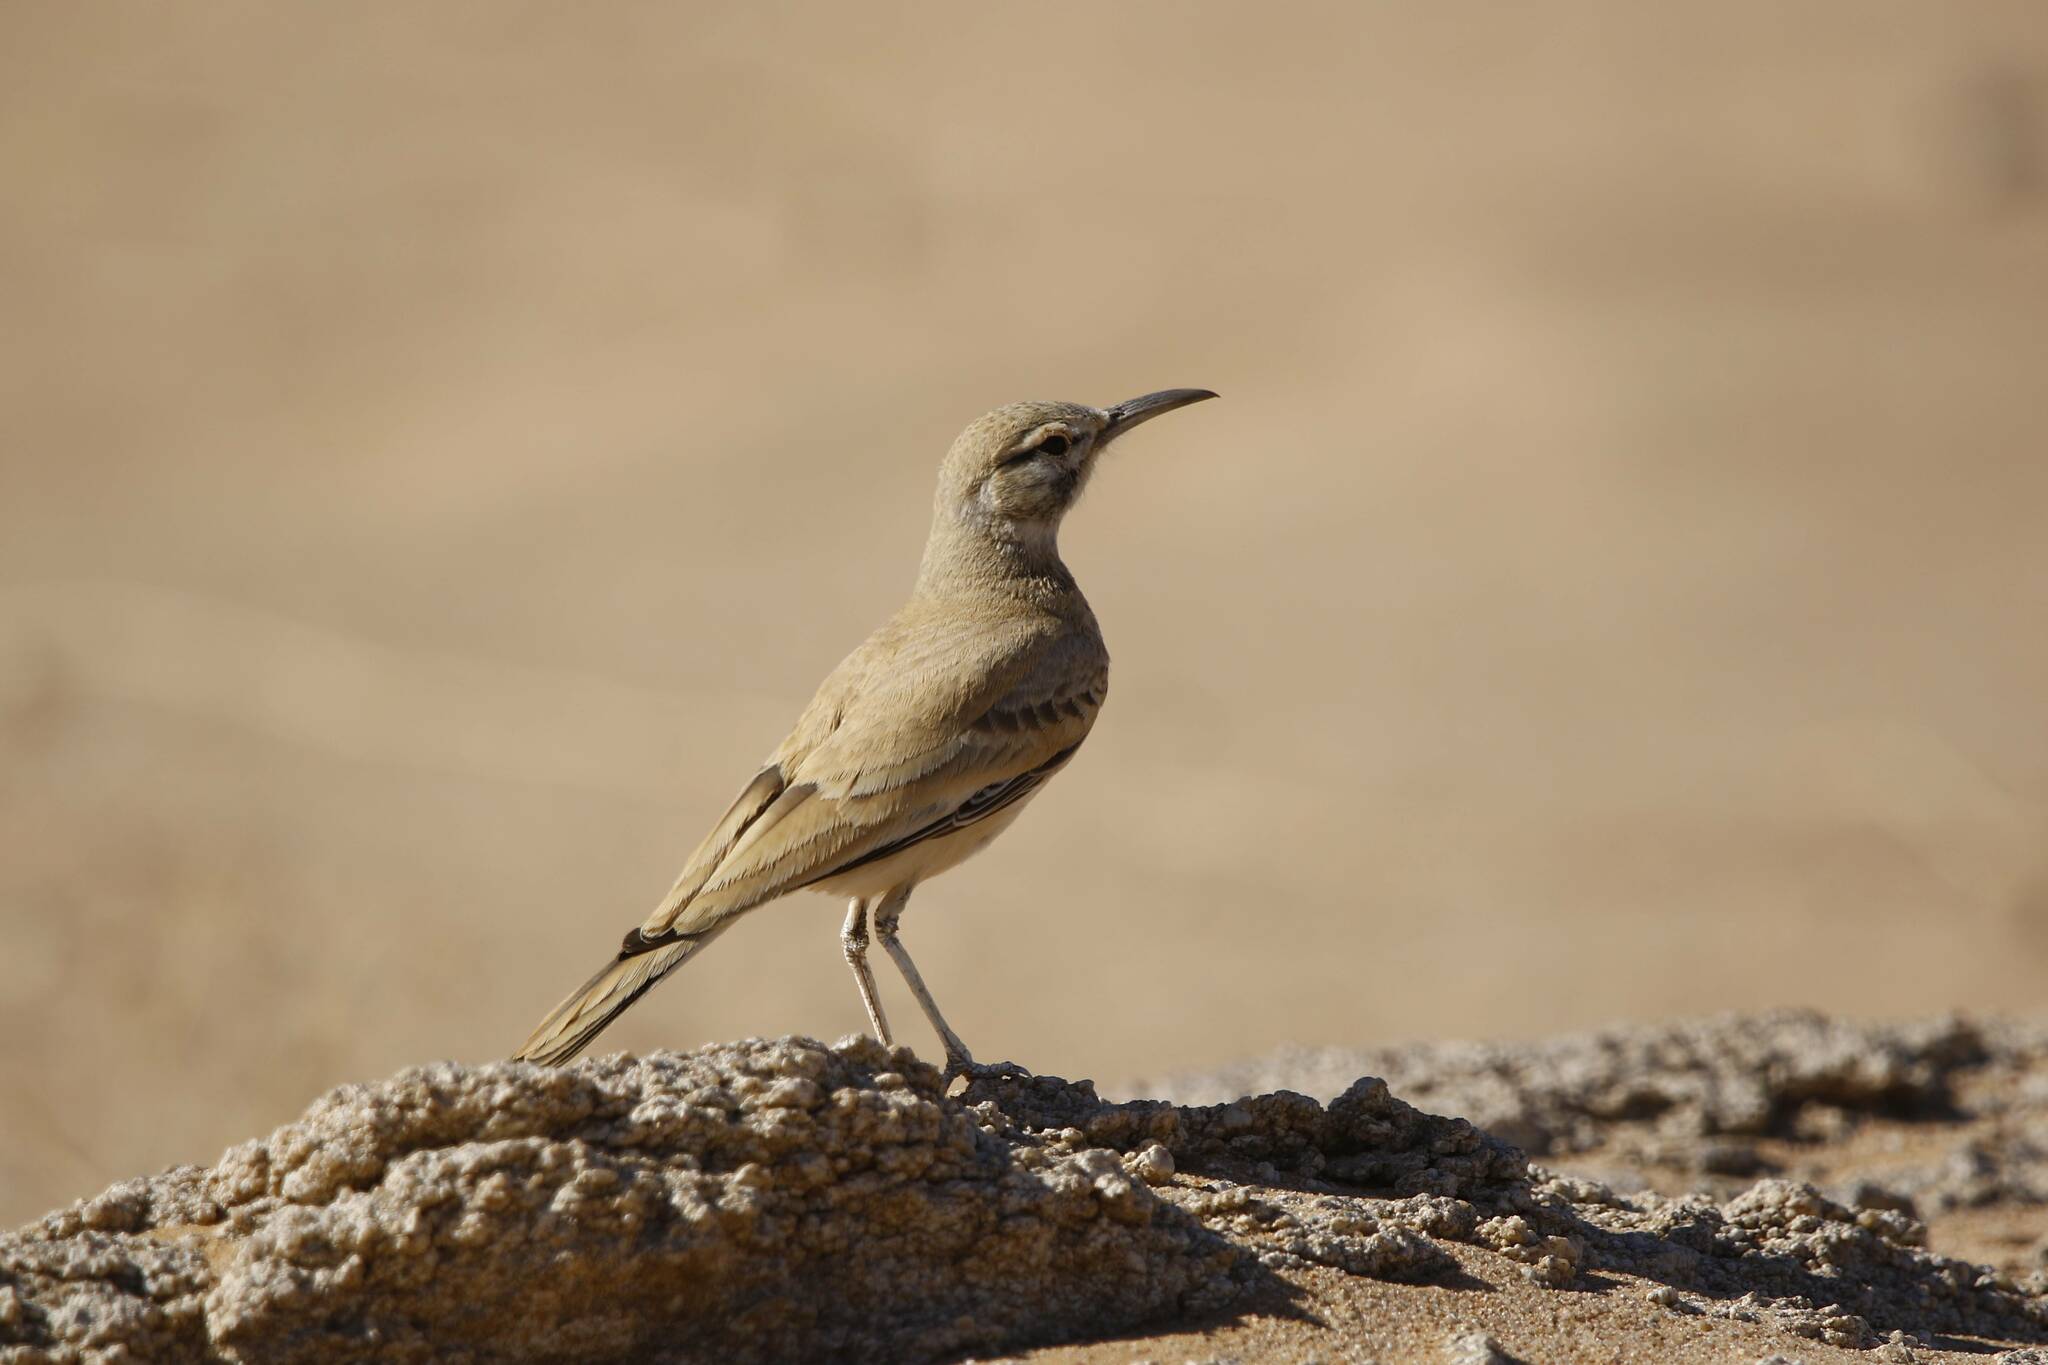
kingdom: Animalia
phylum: Chordata
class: Aves
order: Passeriformes
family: Alaudidae
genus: Alaemon
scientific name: Alaemon alaudipes
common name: Greater hoopoe-lark
